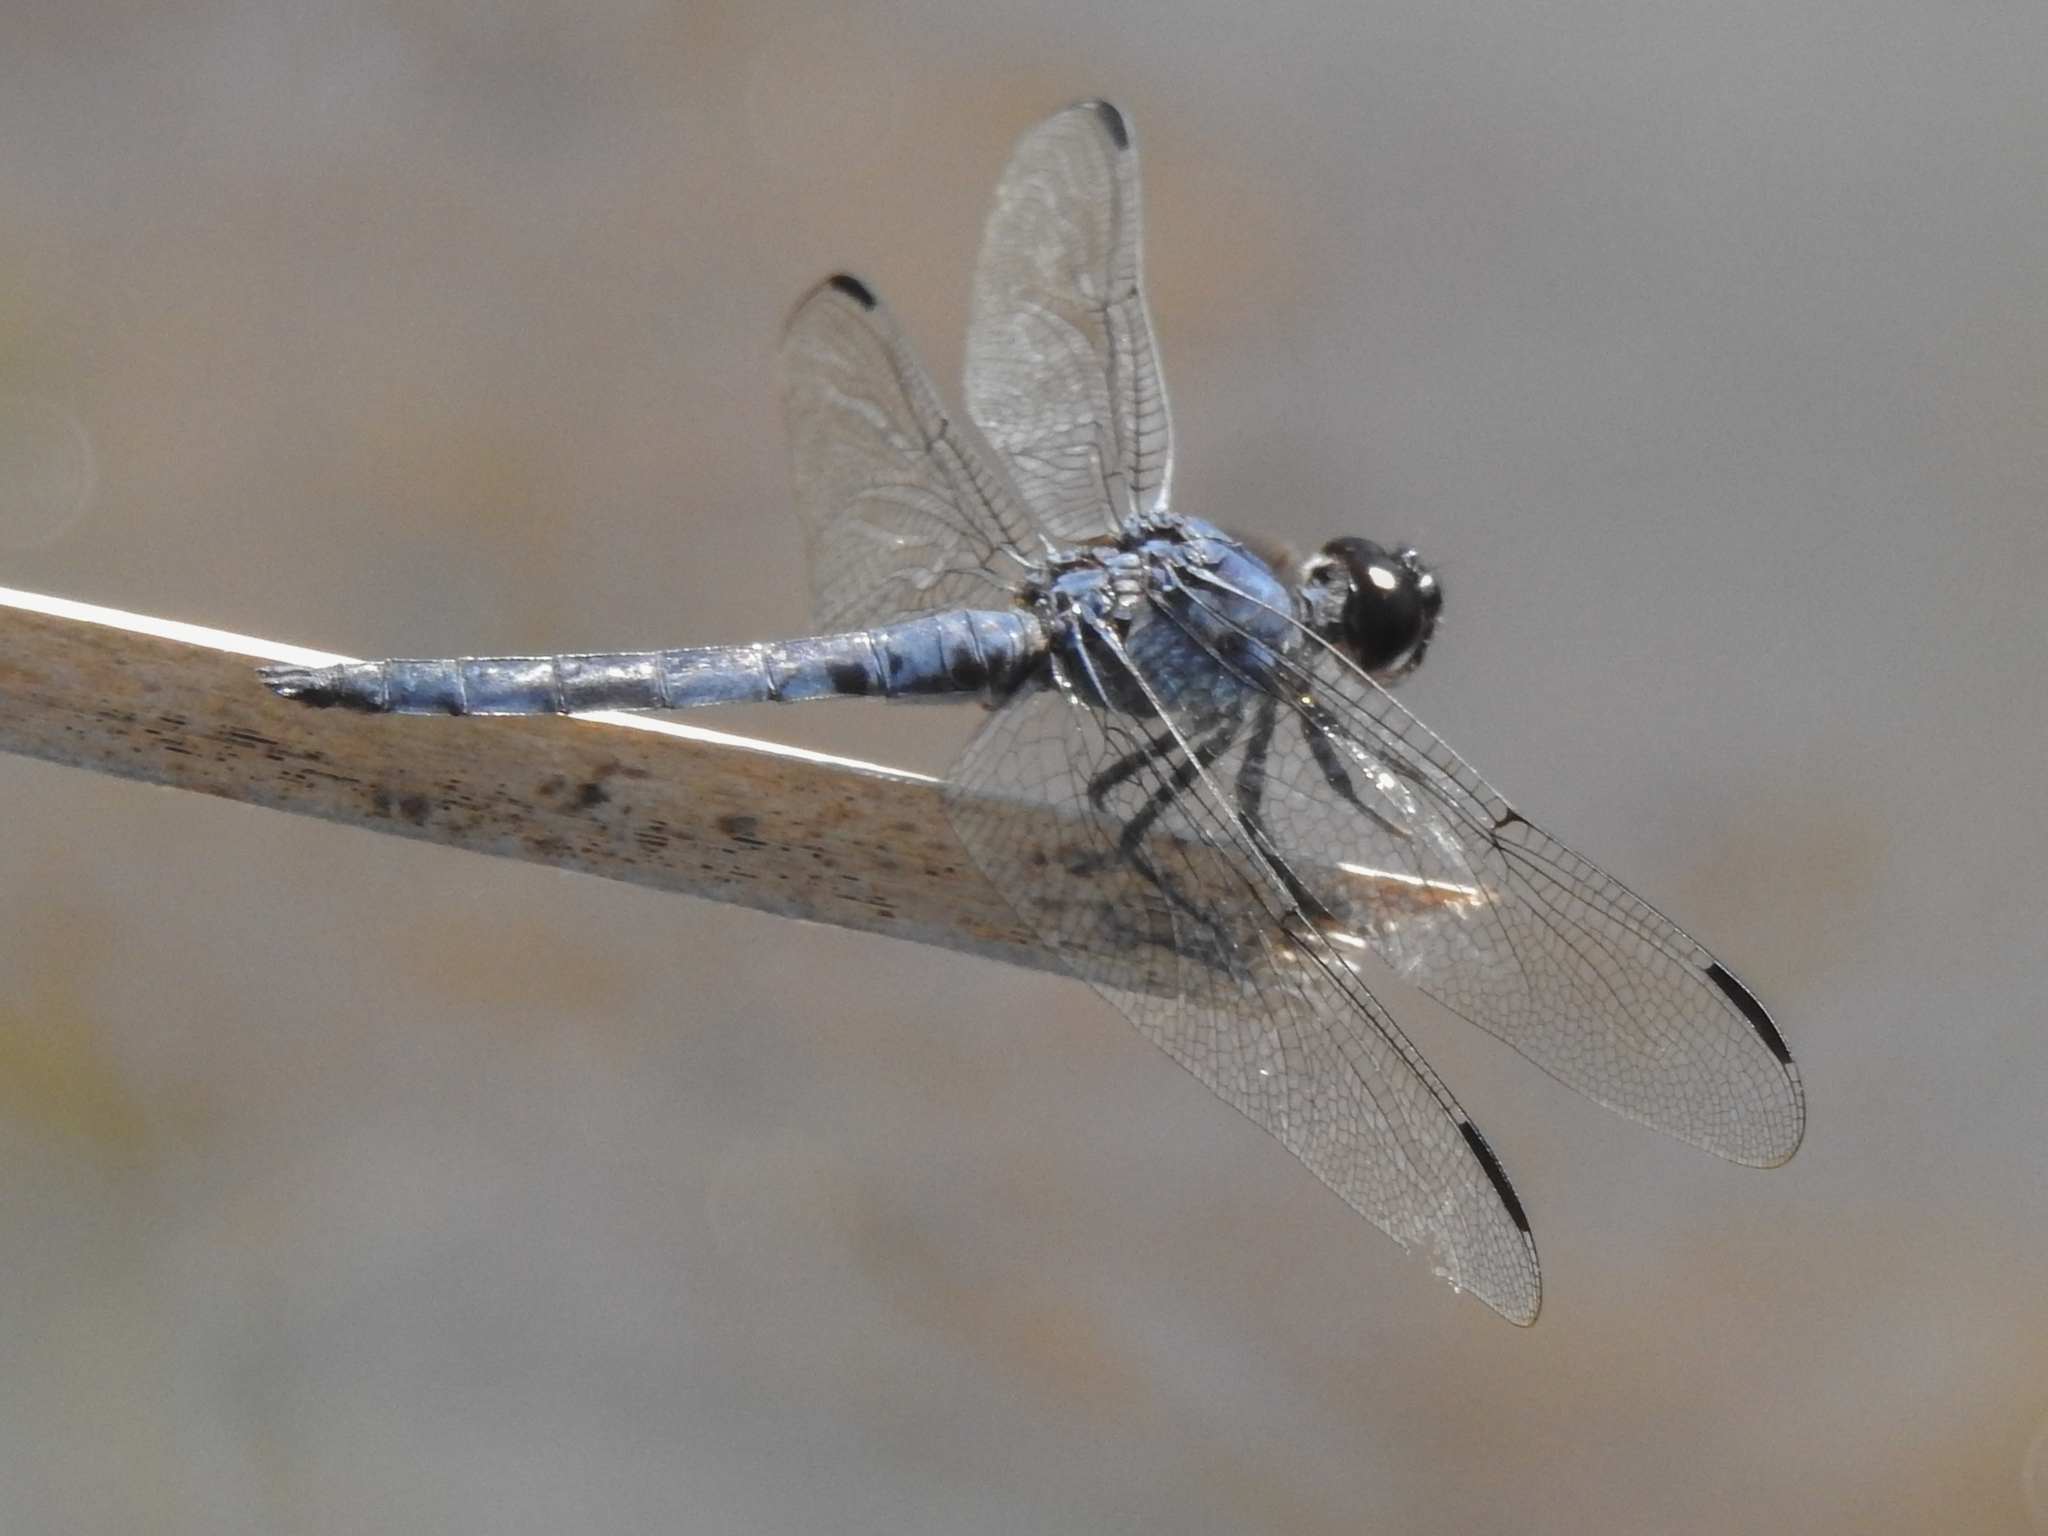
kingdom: Animalia
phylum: Arthropoda
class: Insecta
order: Odonata
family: Libellulidae
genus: Libellula
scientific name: Libellula incesta
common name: Slaty skimmer
